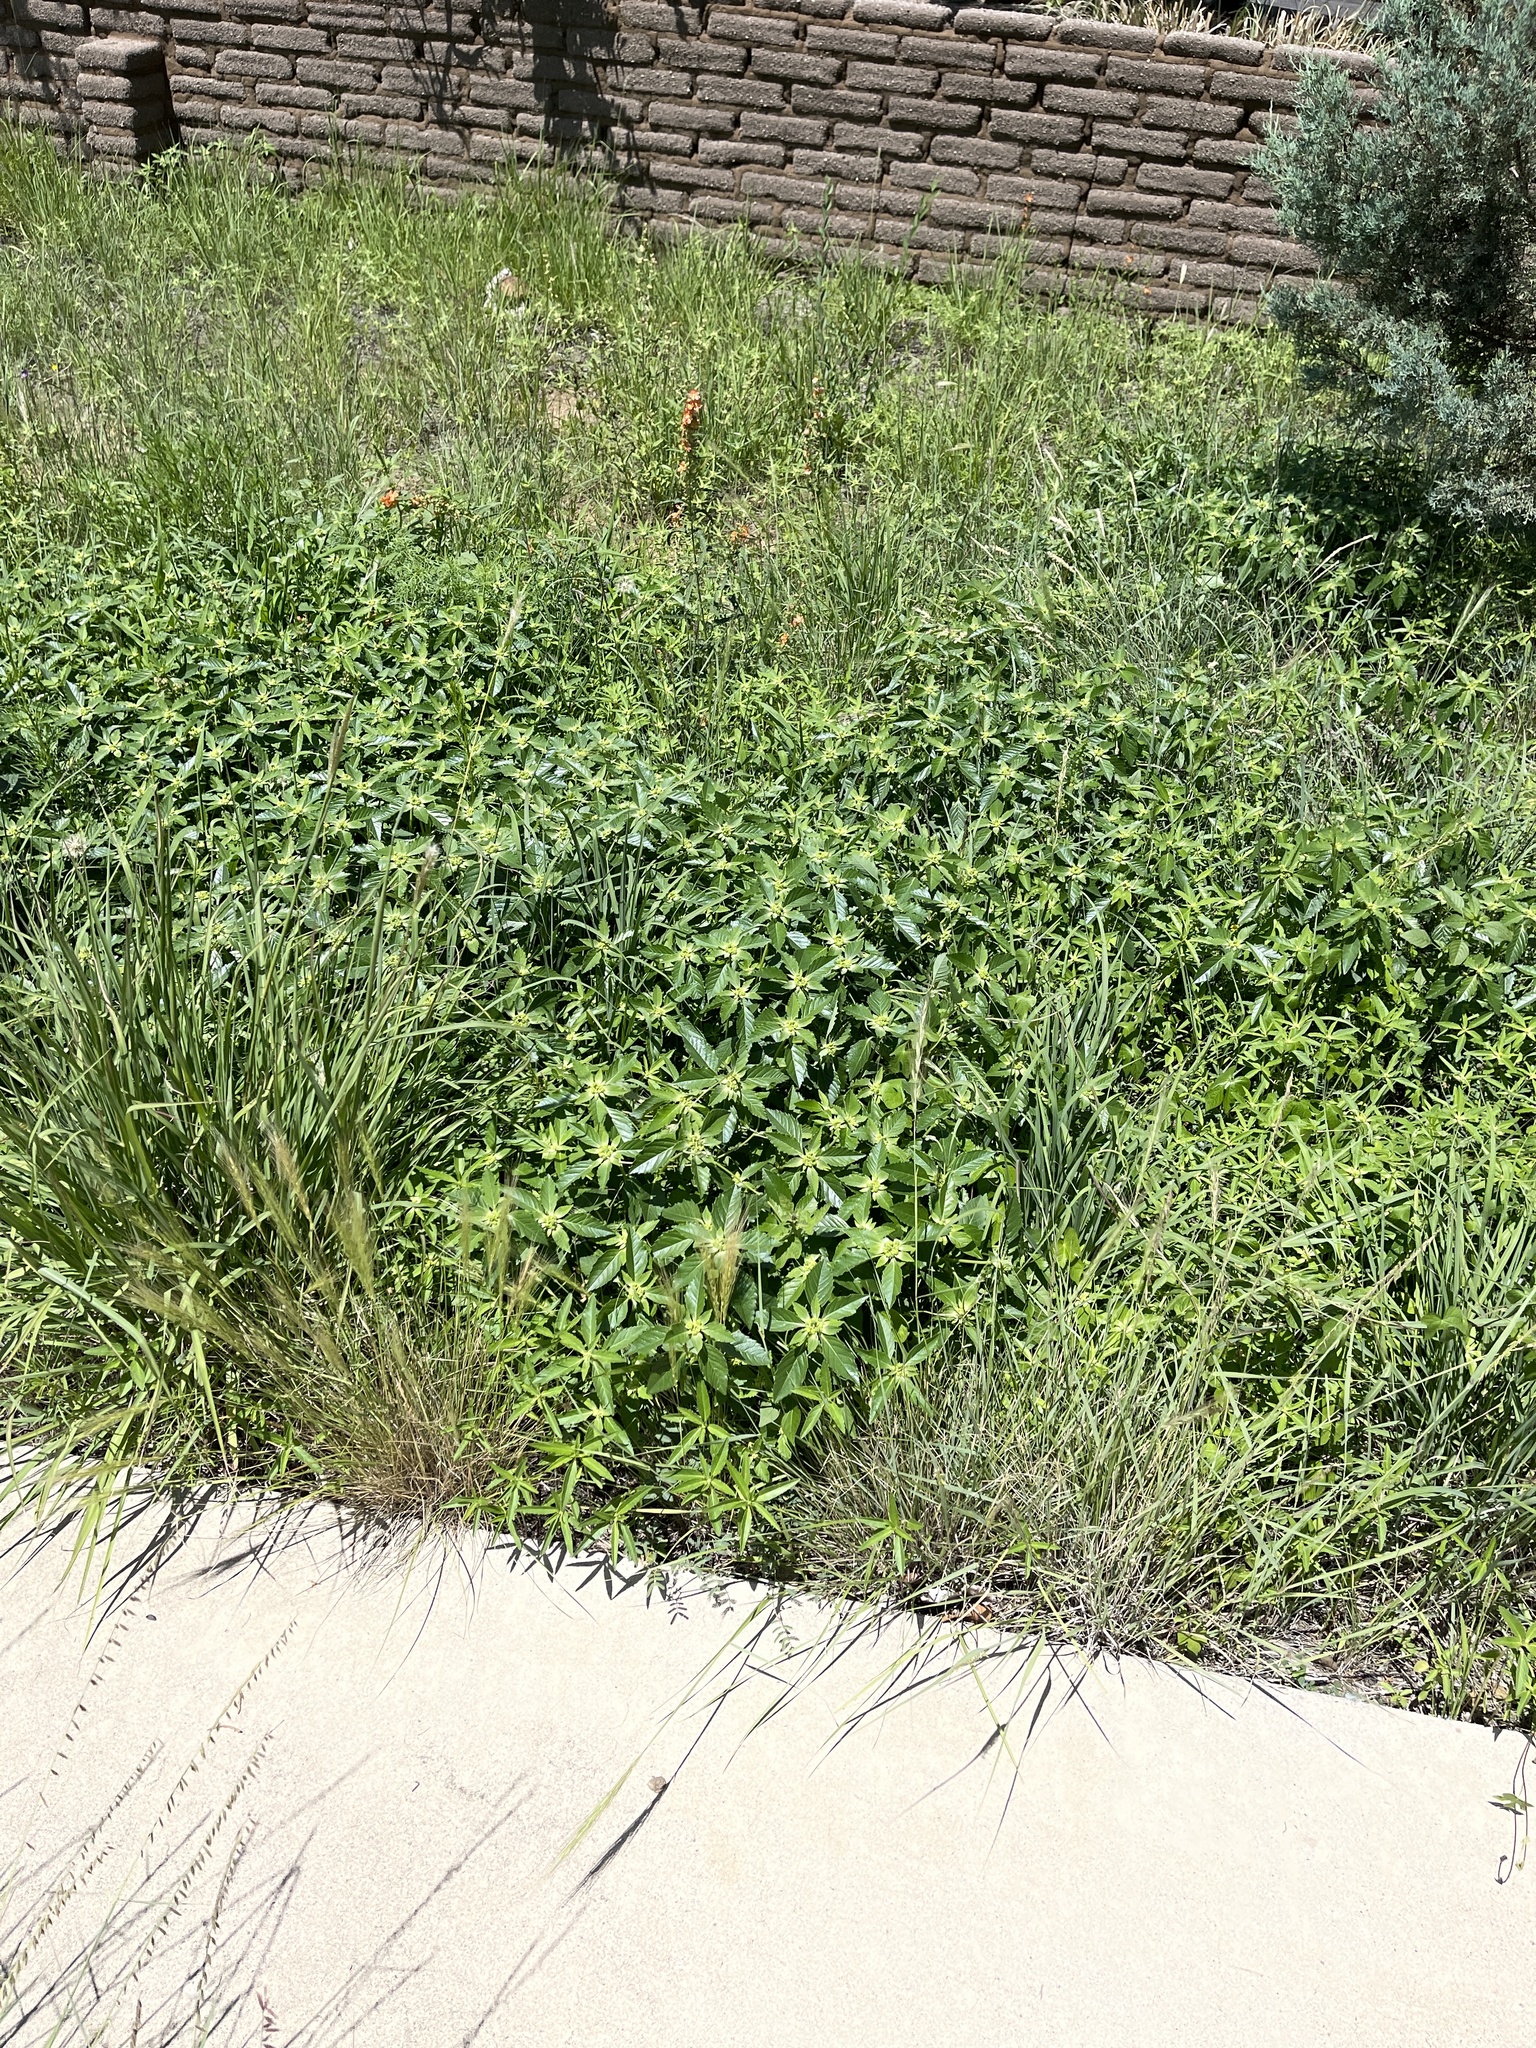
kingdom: Plantae
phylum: Tracheophyta
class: Magnoliopsida
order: Malpighiales
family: Euphorbiaceae
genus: Euphorbia
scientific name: Euphorbia davidii
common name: David's spurge
